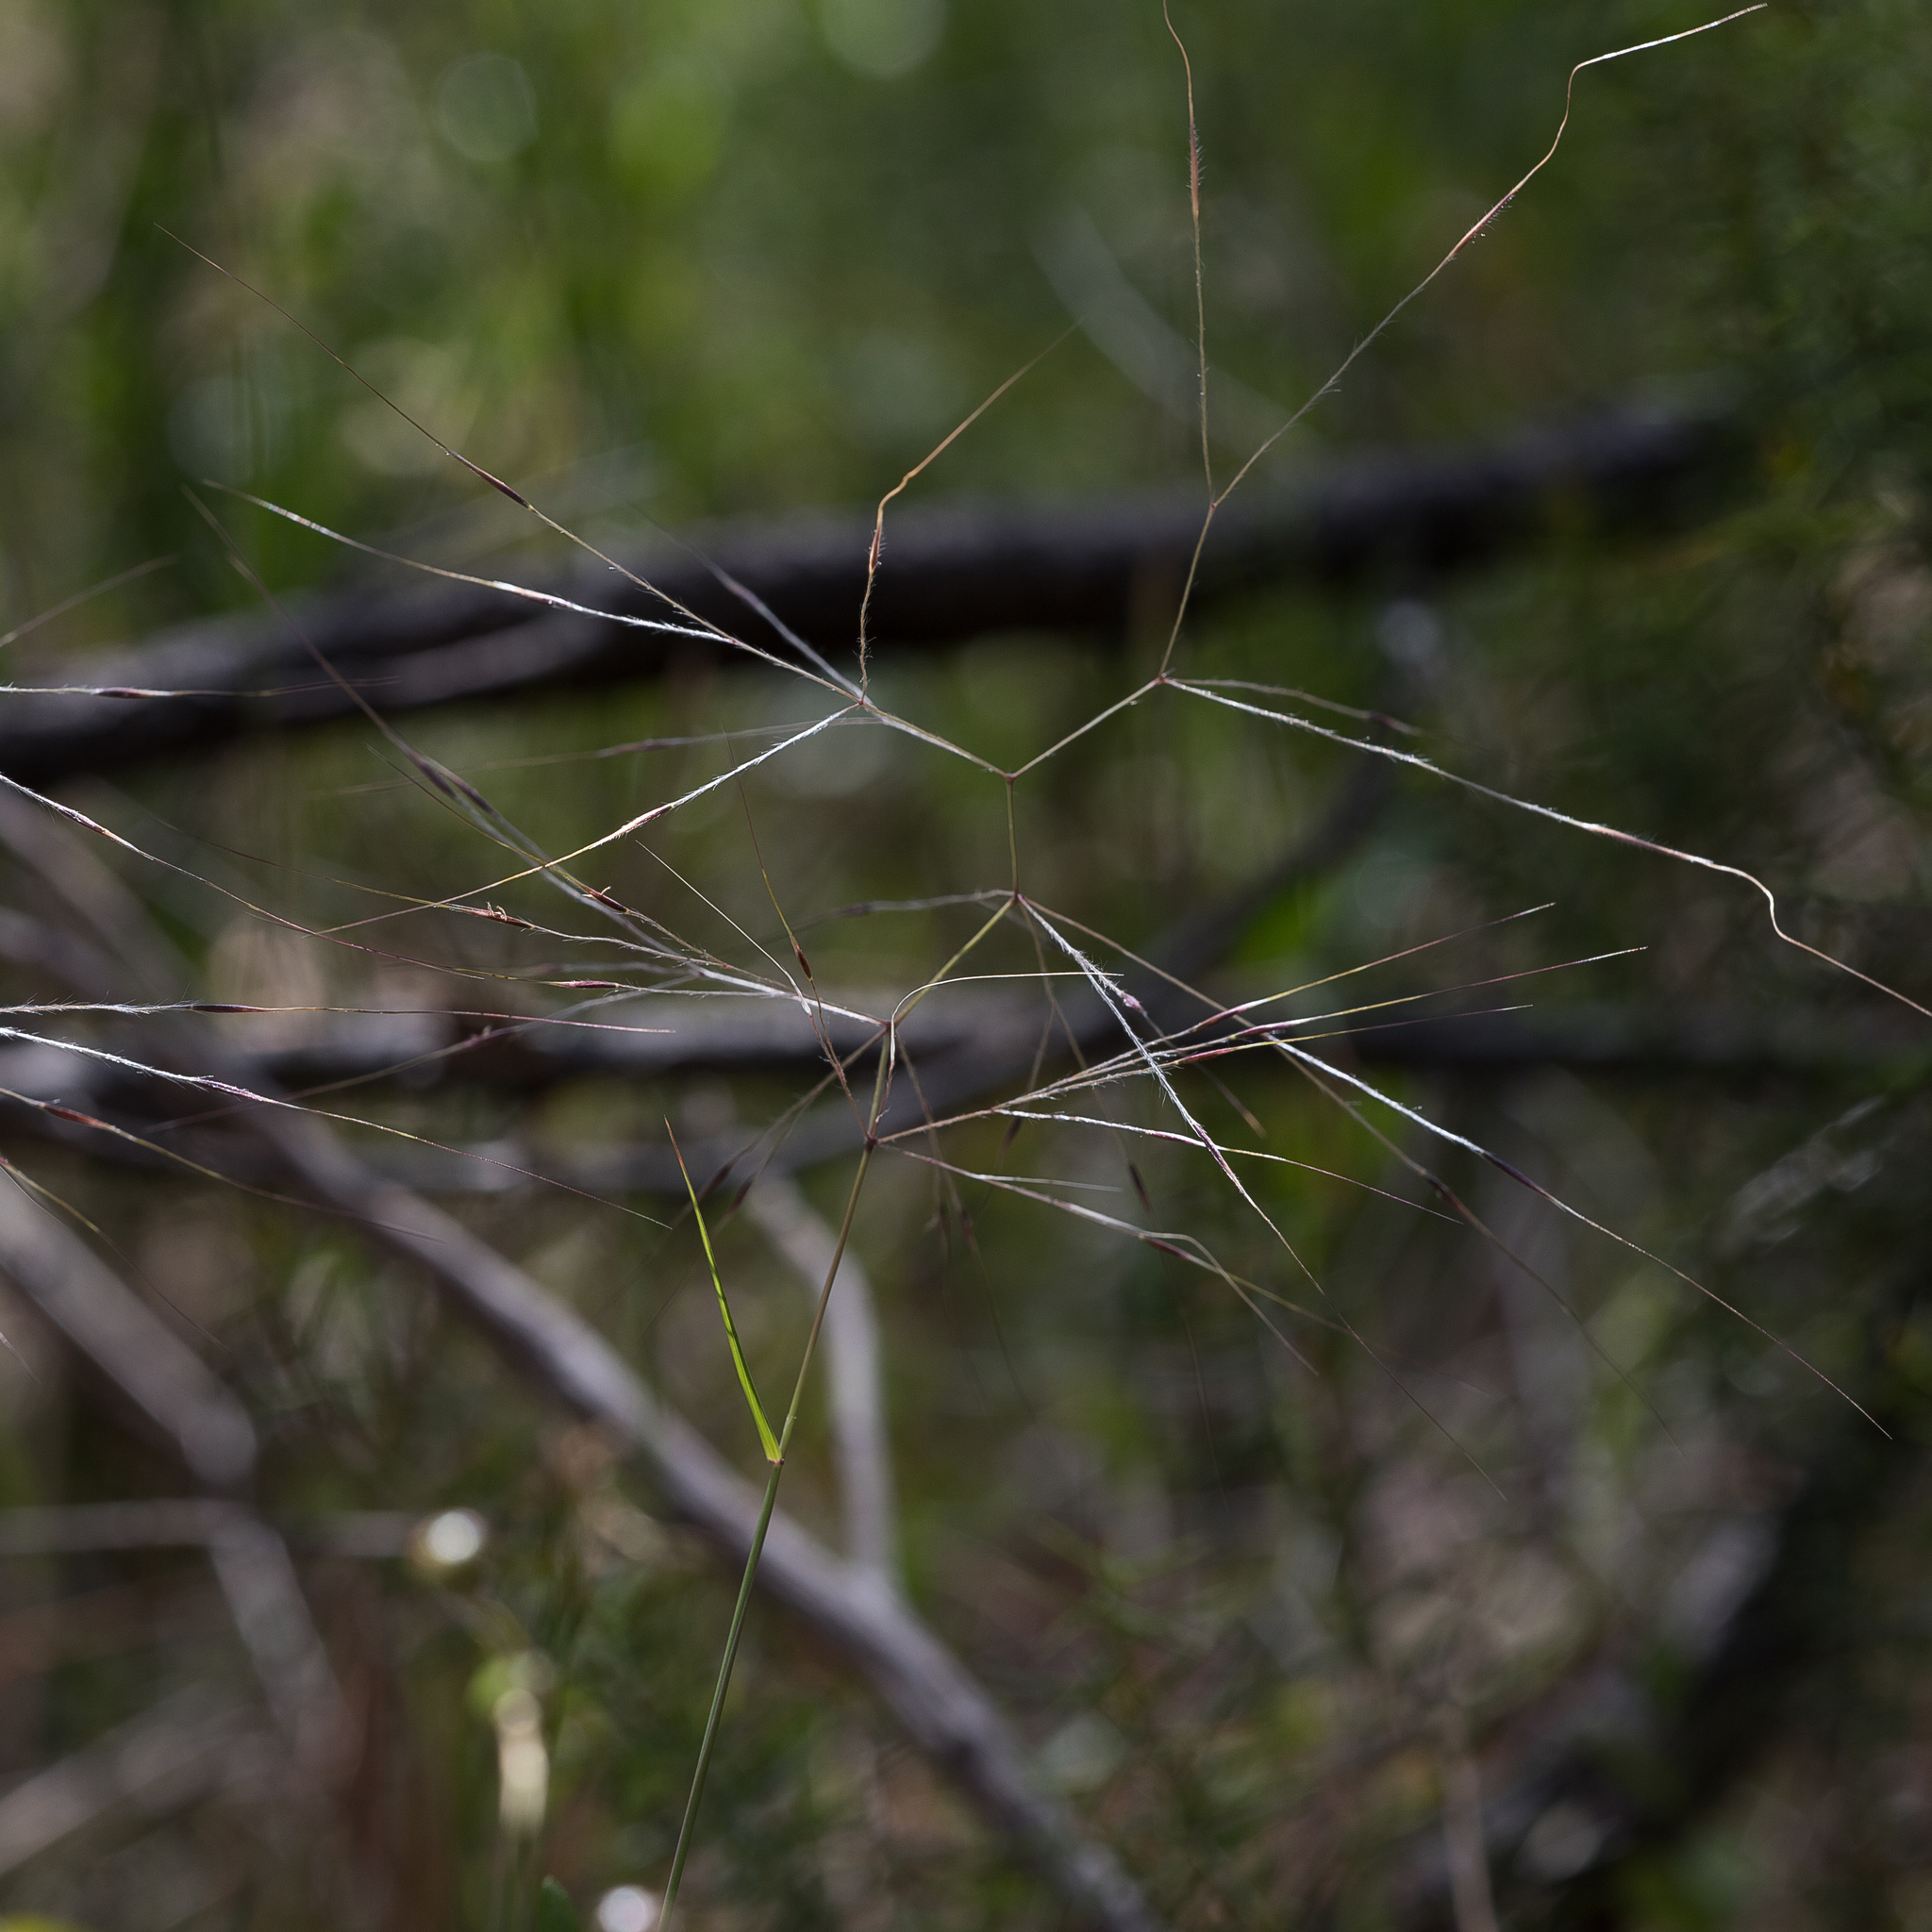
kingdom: Plantae
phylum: Tracheophyta
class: Liliopsida
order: Poales
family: Poaceae
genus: Austrostipa
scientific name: Austrostipa elegantissima
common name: Feather spear grass
